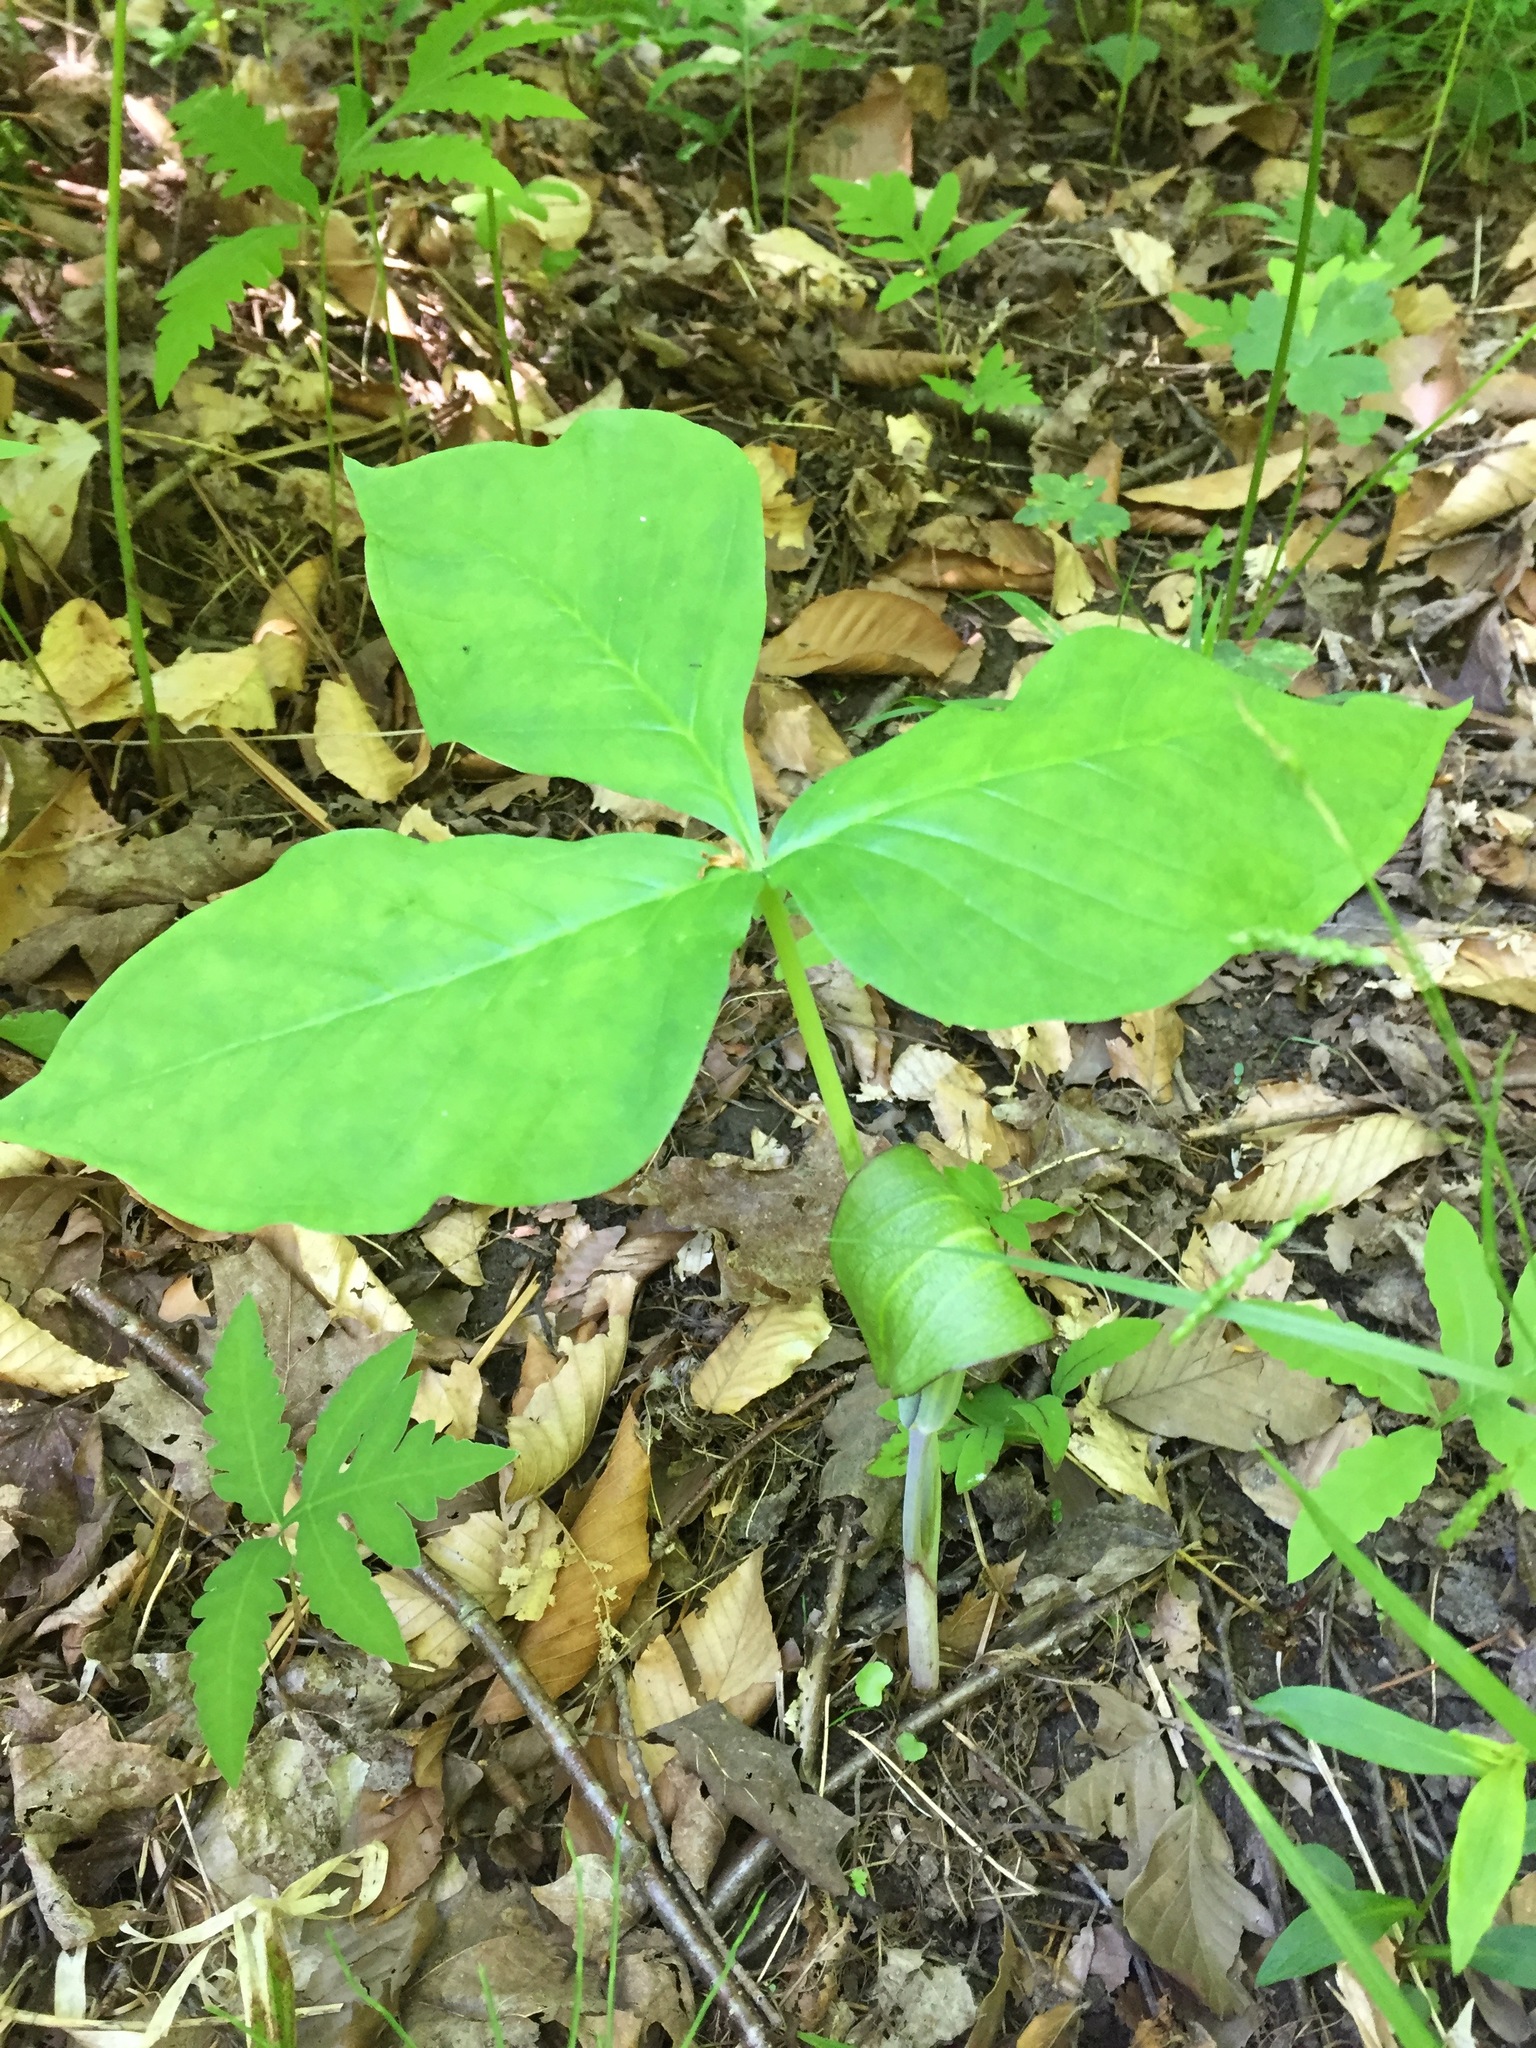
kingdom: Plantae
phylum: Tracheophyta
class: Liliopsida
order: Alismatales
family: Araceae
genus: Arisaema
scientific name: Arisaema triphyllum
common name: Jack-in-the-pulpit
